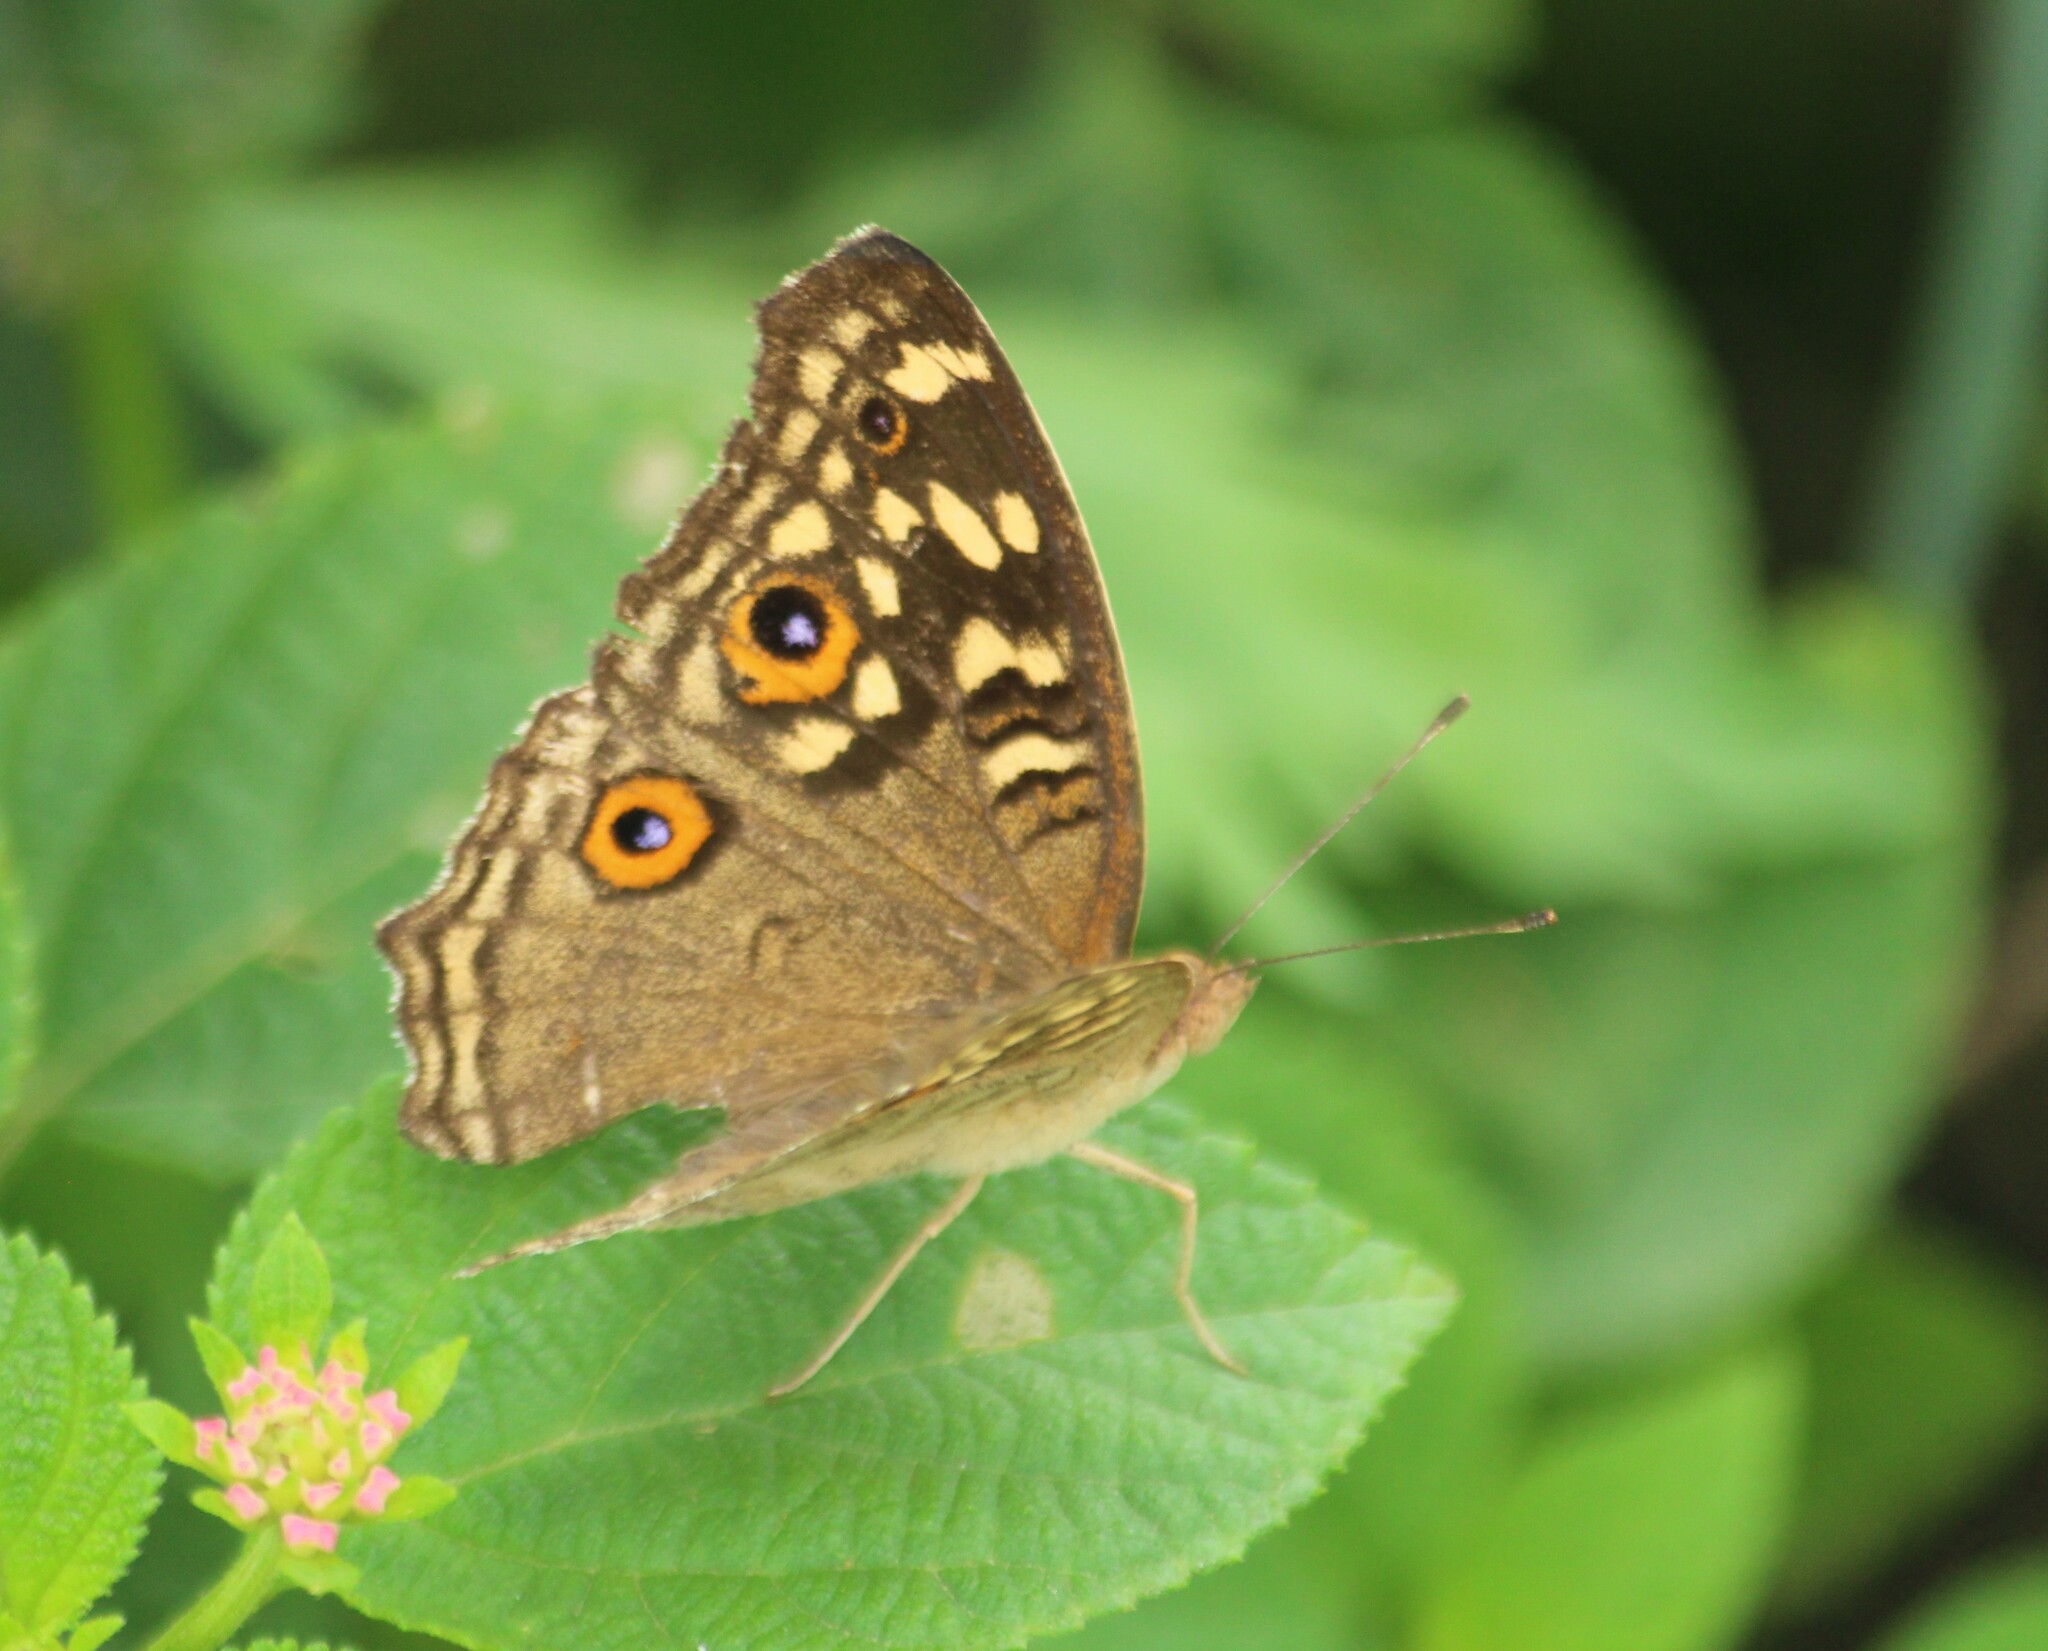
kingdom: Animalia
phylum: Arthropoda
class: Insecta
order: Lepidoptera
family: Nymphalidae
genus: Junonia
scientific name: Junonia lemonias
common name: Lemon pansy
